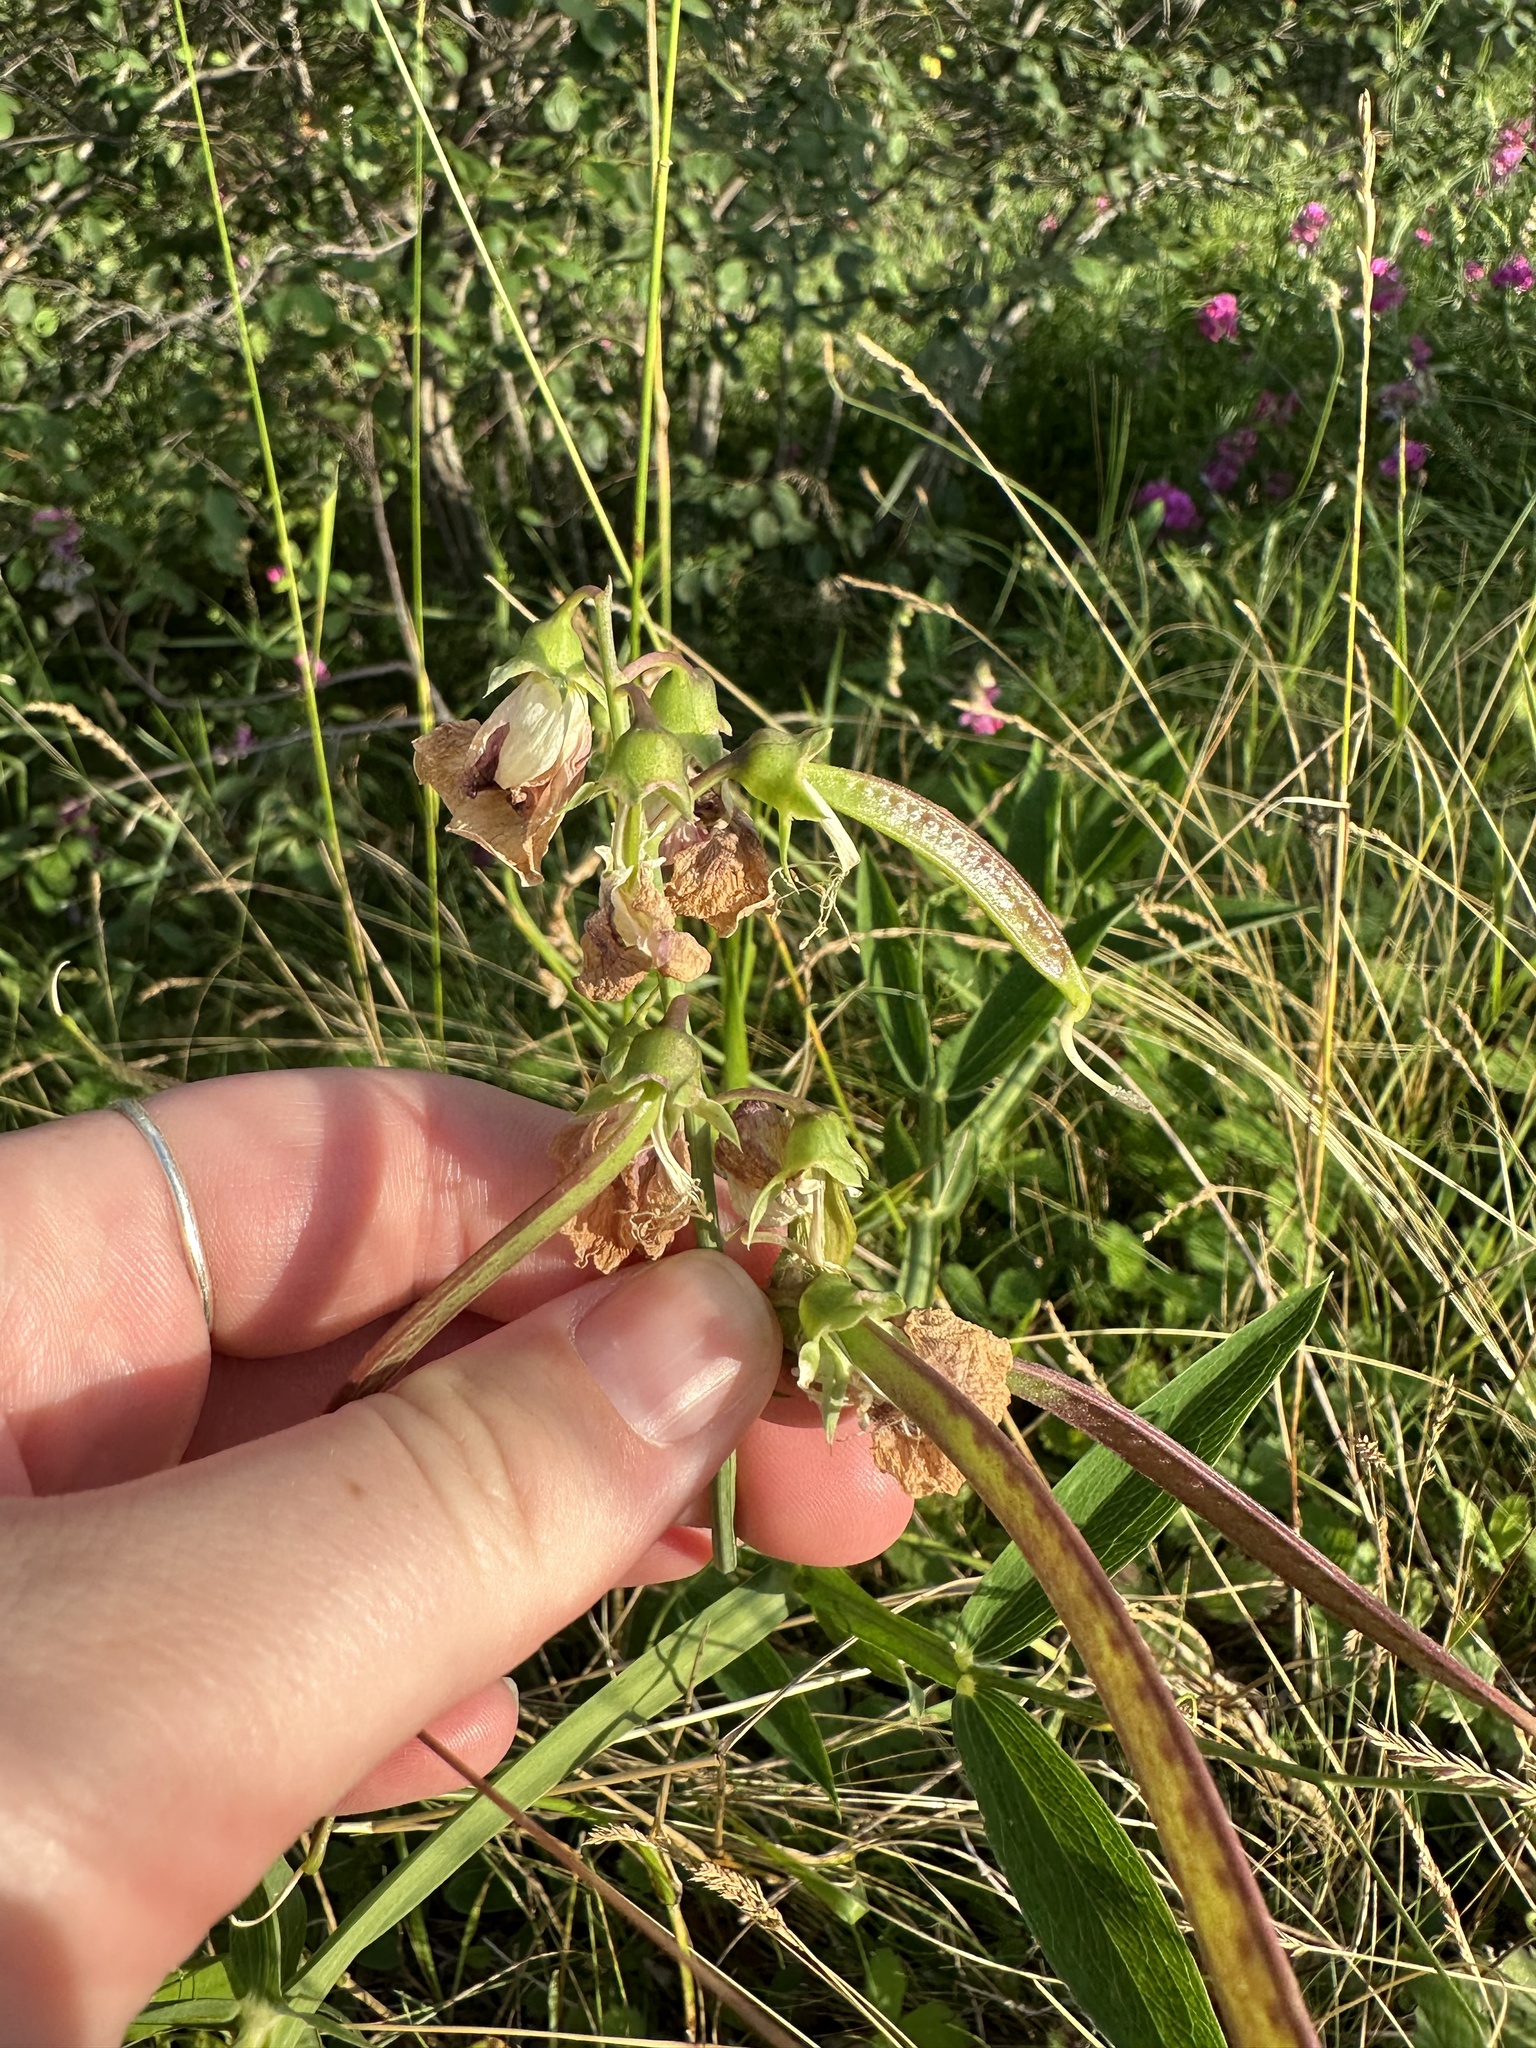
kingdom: Plantae
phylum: Tracheophyta
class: Magnoliopsida
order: Fabales
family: Fabaceae
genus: Lathyrus
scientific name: Lathyrus latifolius
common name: Perennial pea
